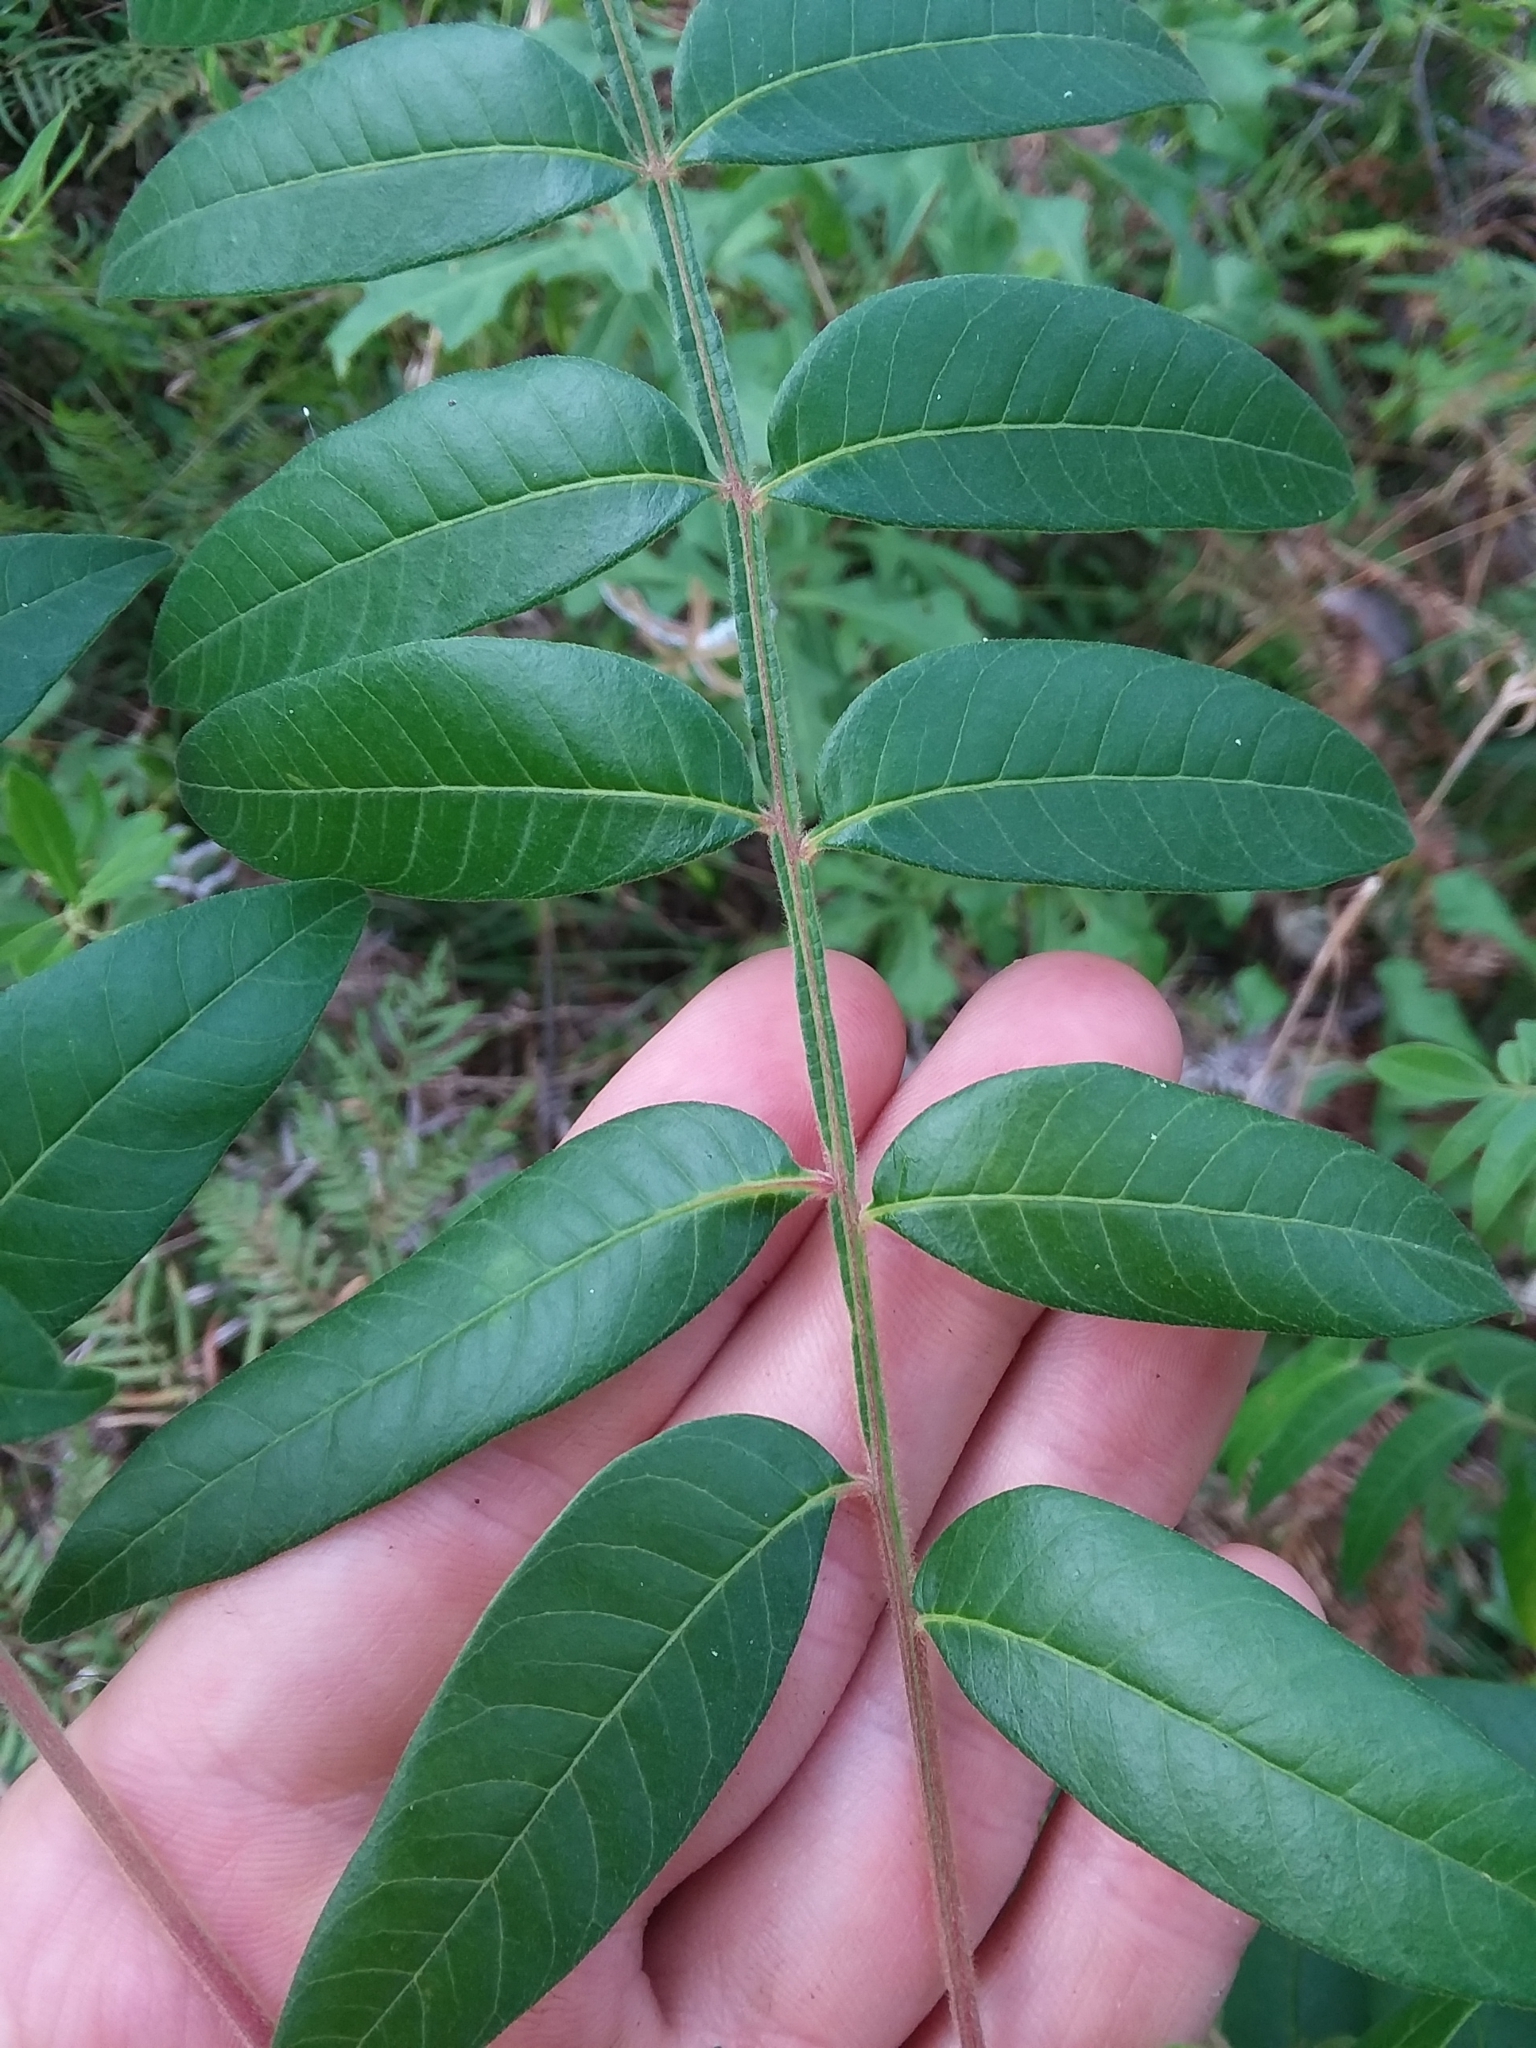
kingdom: Plantae
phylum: Tracheophyta
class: Magnoliopsida
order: Sapindales
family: Anacardiaceae
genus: Rhus
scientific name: Rhus copallina
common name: Shining sumac
